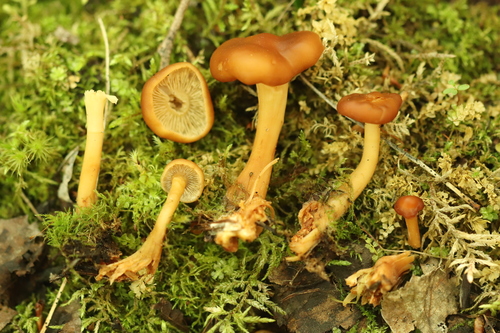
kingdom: Fungi
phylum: Basidiomycota
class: Agaricomycetes
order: Agaricales
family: Omphalotaceae
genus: Gymnopus
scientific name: Gymnopus dryophilus
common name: Penny top
